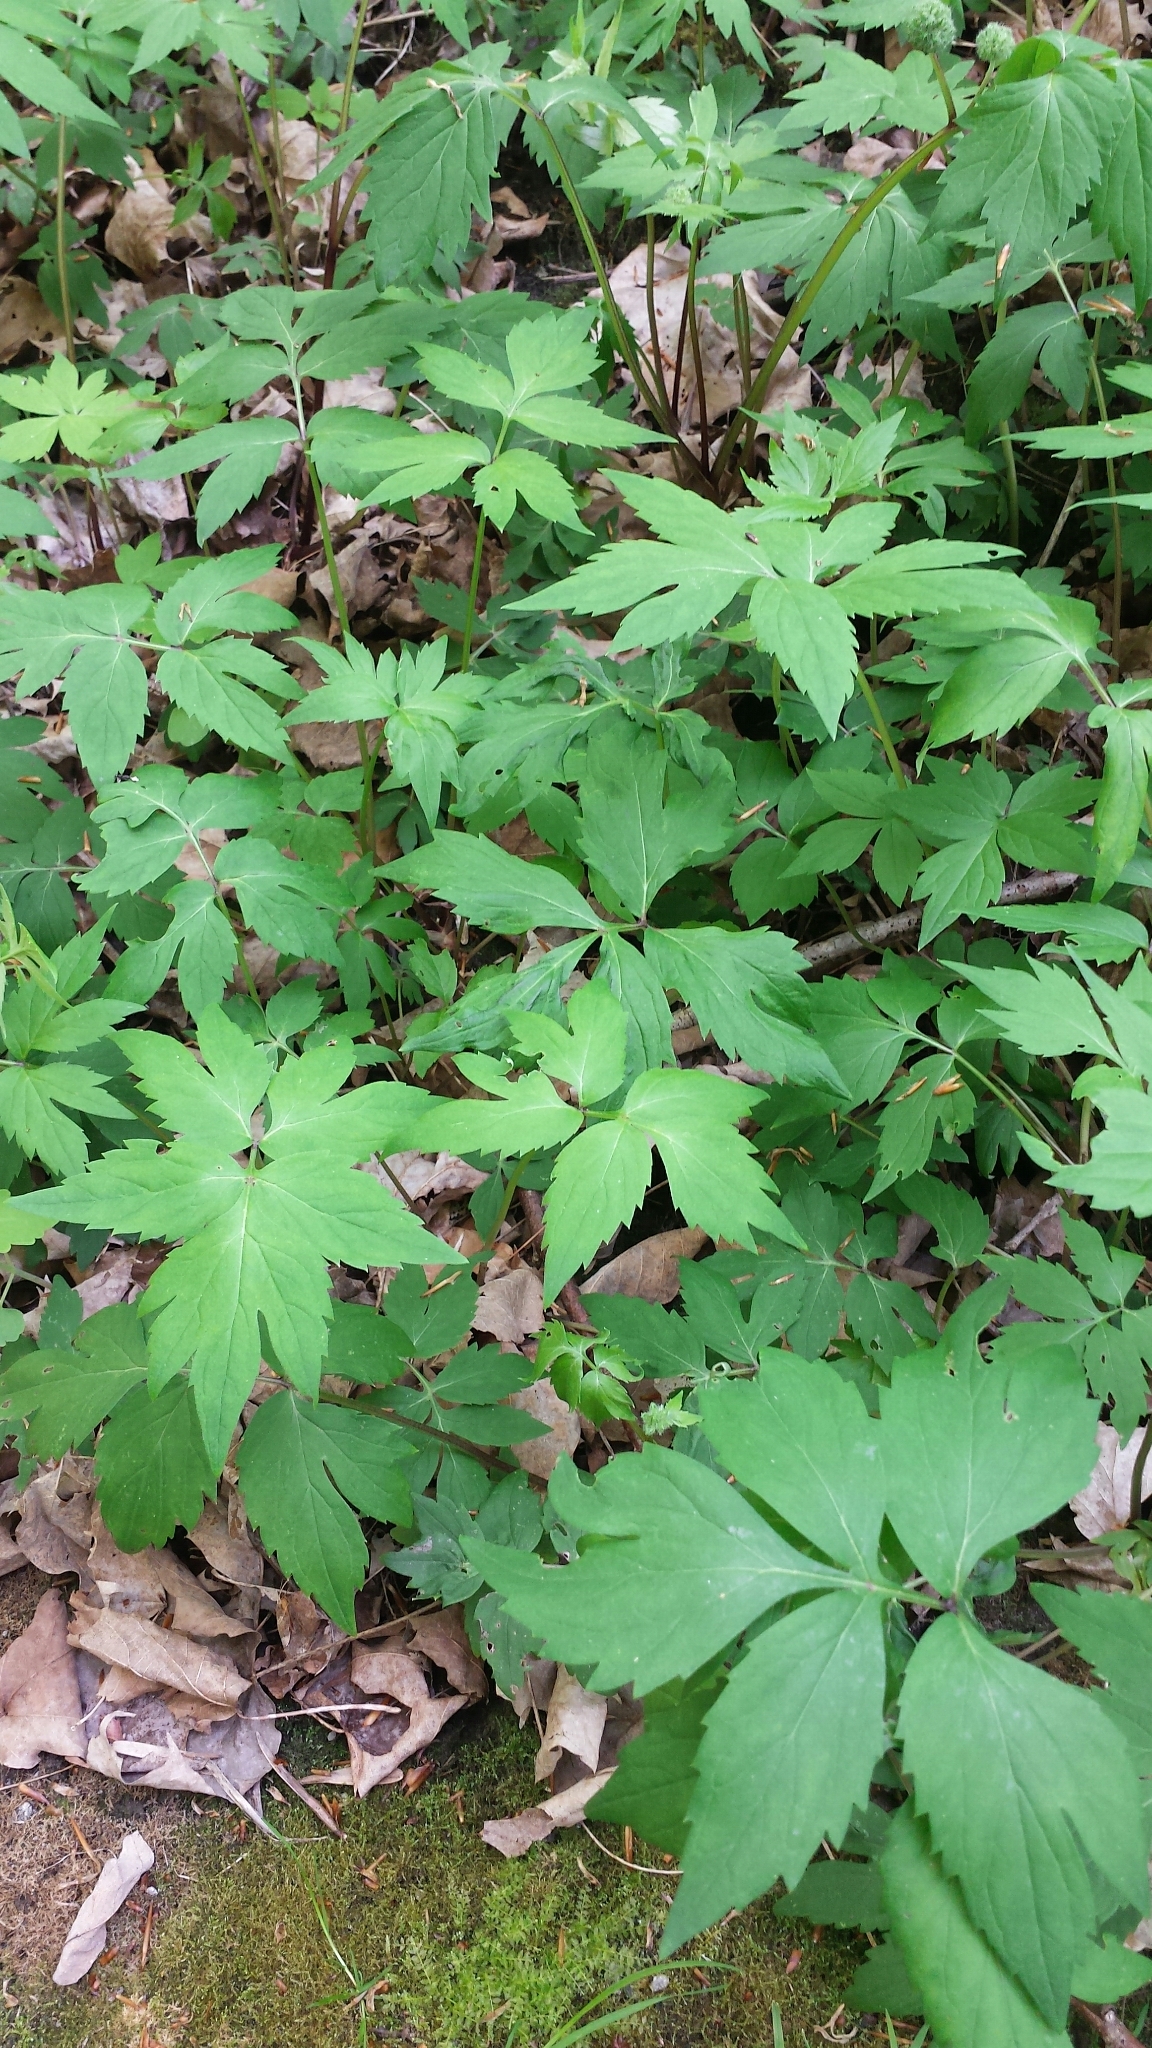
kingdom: Plantae
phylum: Tracheophyta
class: Magnoliopsida
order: Boraginales
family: Hydrophyllaceae
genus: Hydrophyllum
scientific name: Hydrophyllum virginianum
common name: Virginia waterleaf
